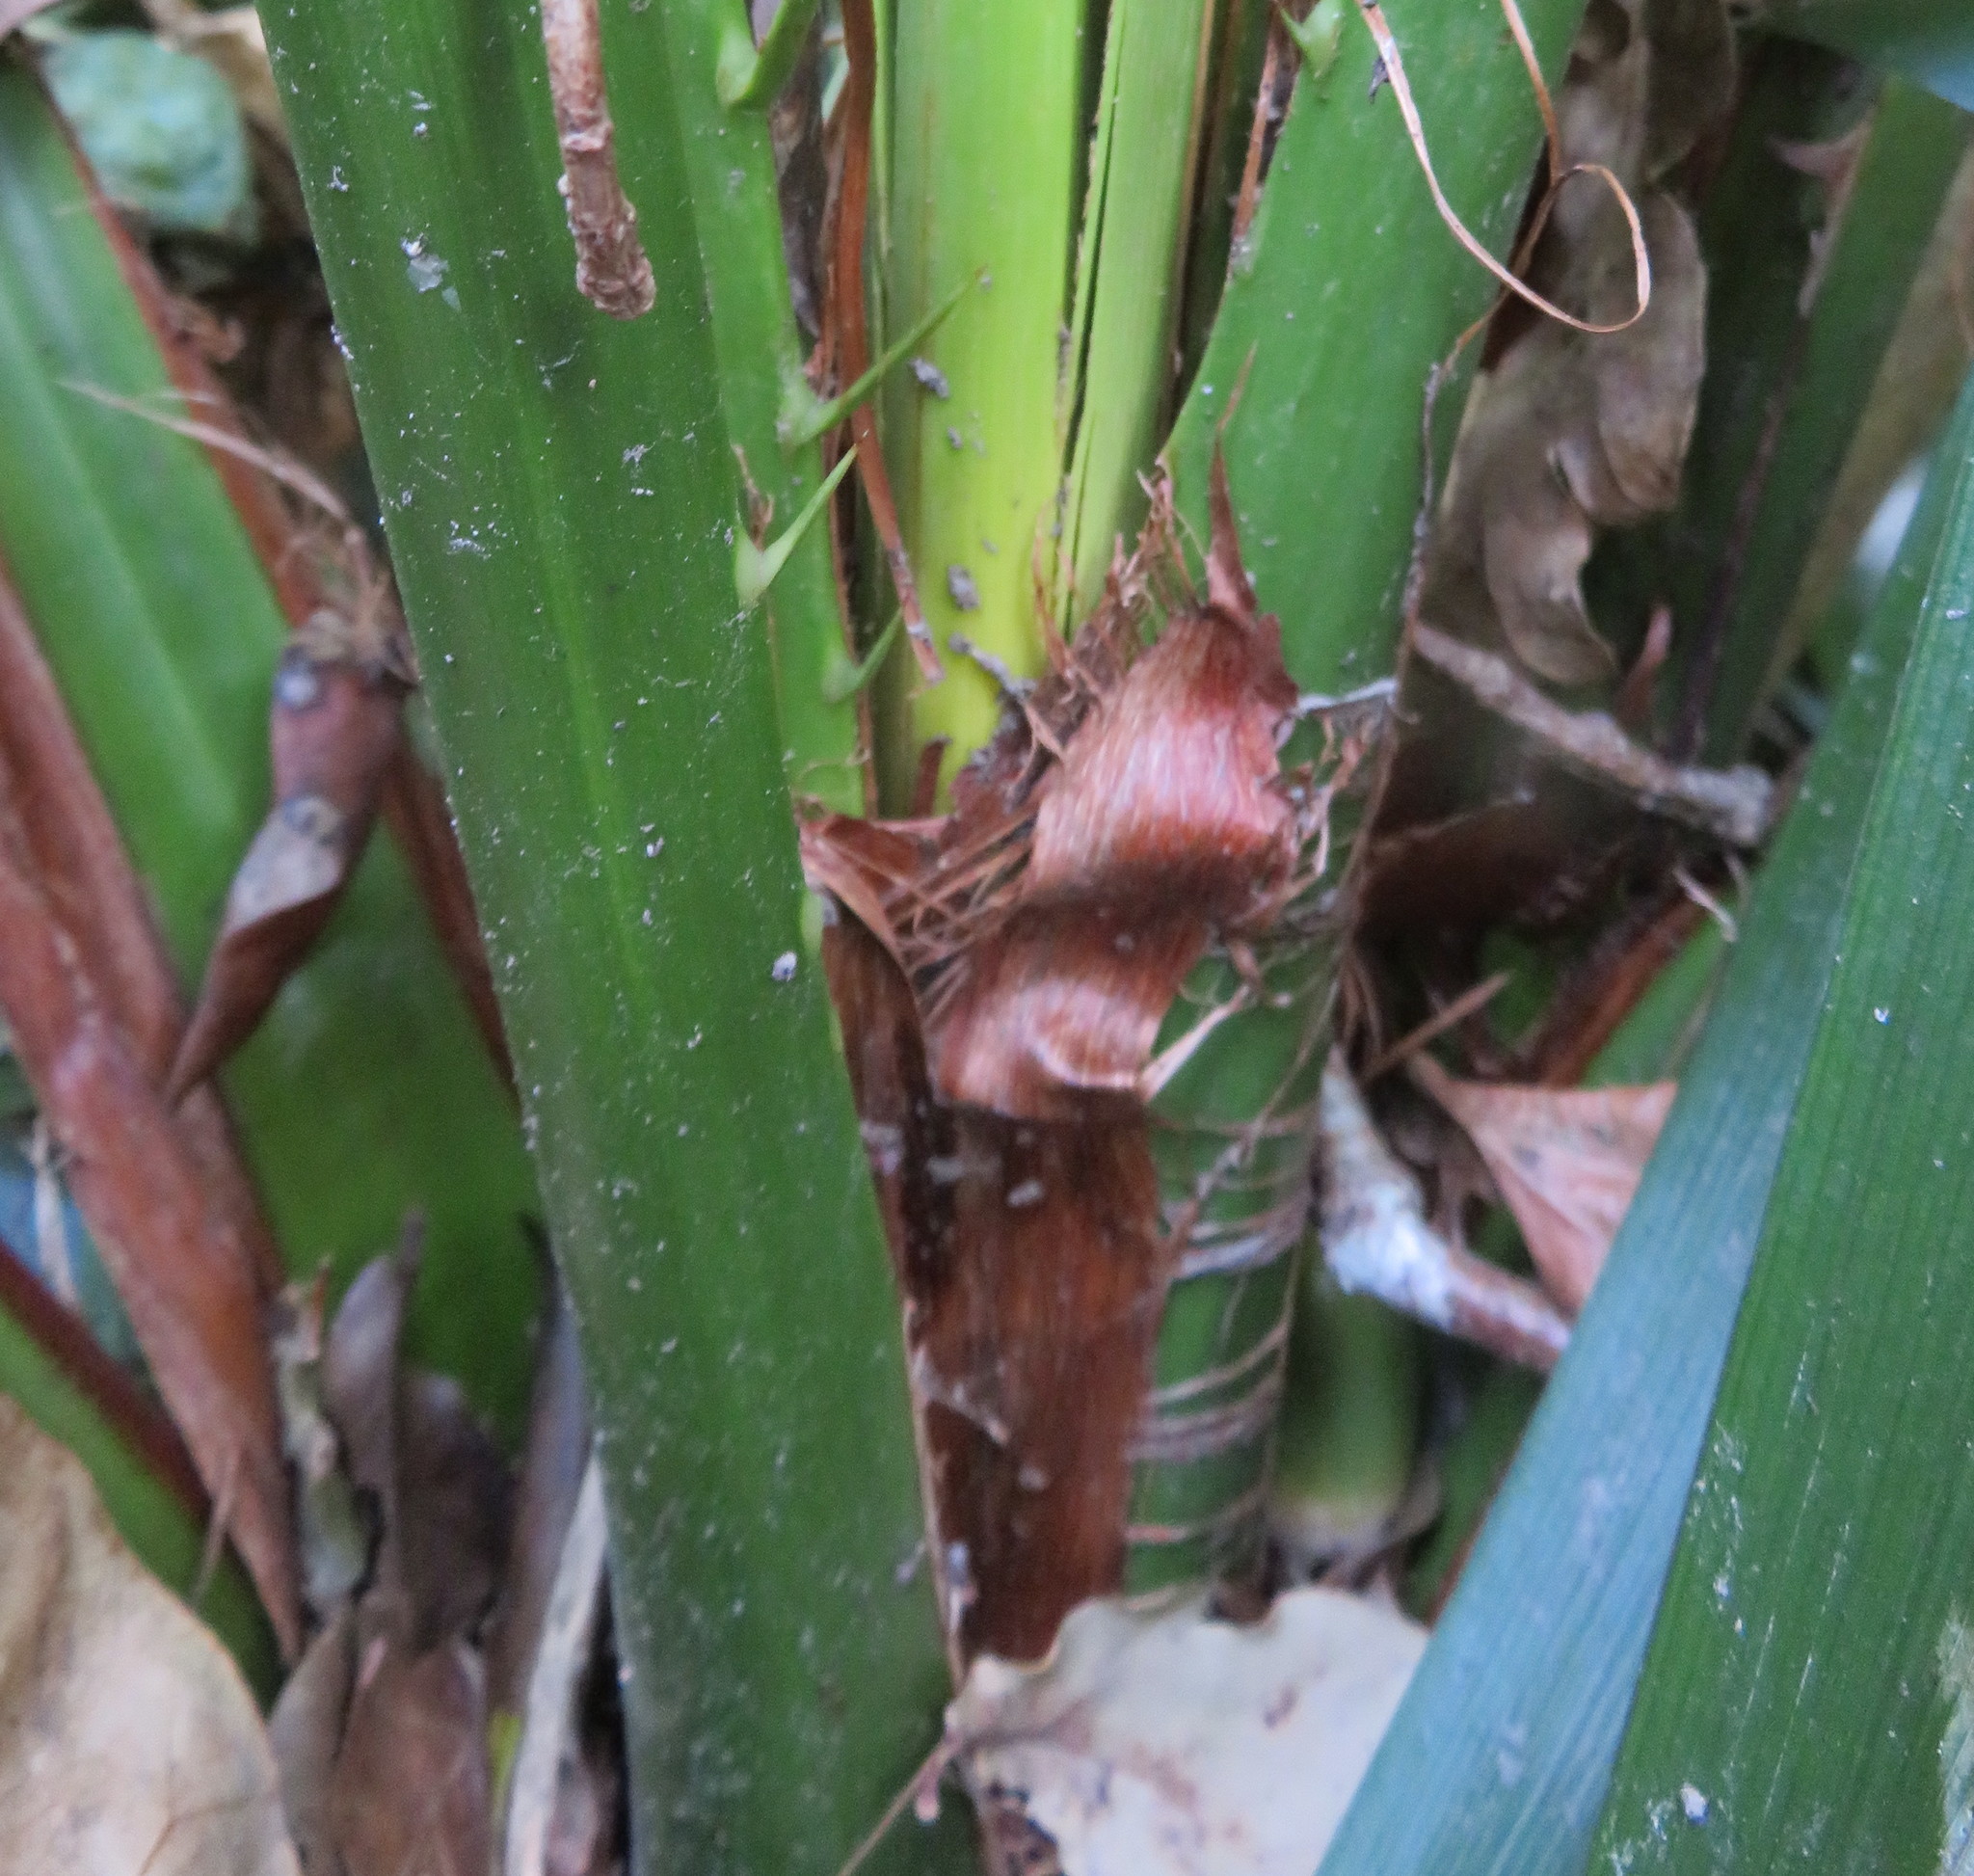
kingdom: Plantae
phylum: Tracheophyta
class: Liliopsida
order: Arecales
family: Arecaceae
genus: Phoenix
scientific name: Phoenix canariensis
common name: Canary island date palm
